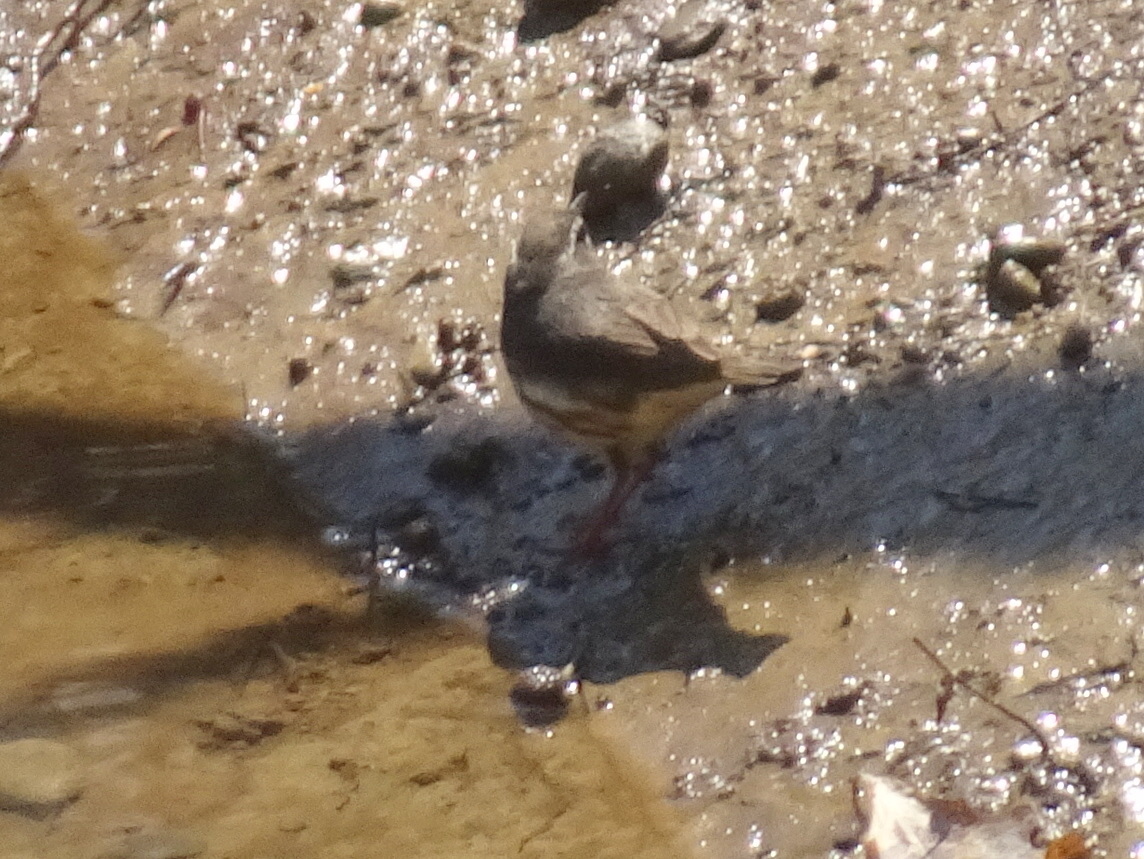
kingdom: Animalia
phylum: Chordata
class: Aves
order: Passeriformes
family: Parulidae
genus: Parkesia
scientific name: Parkesia motacilla
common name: Louisiana waterthrush
